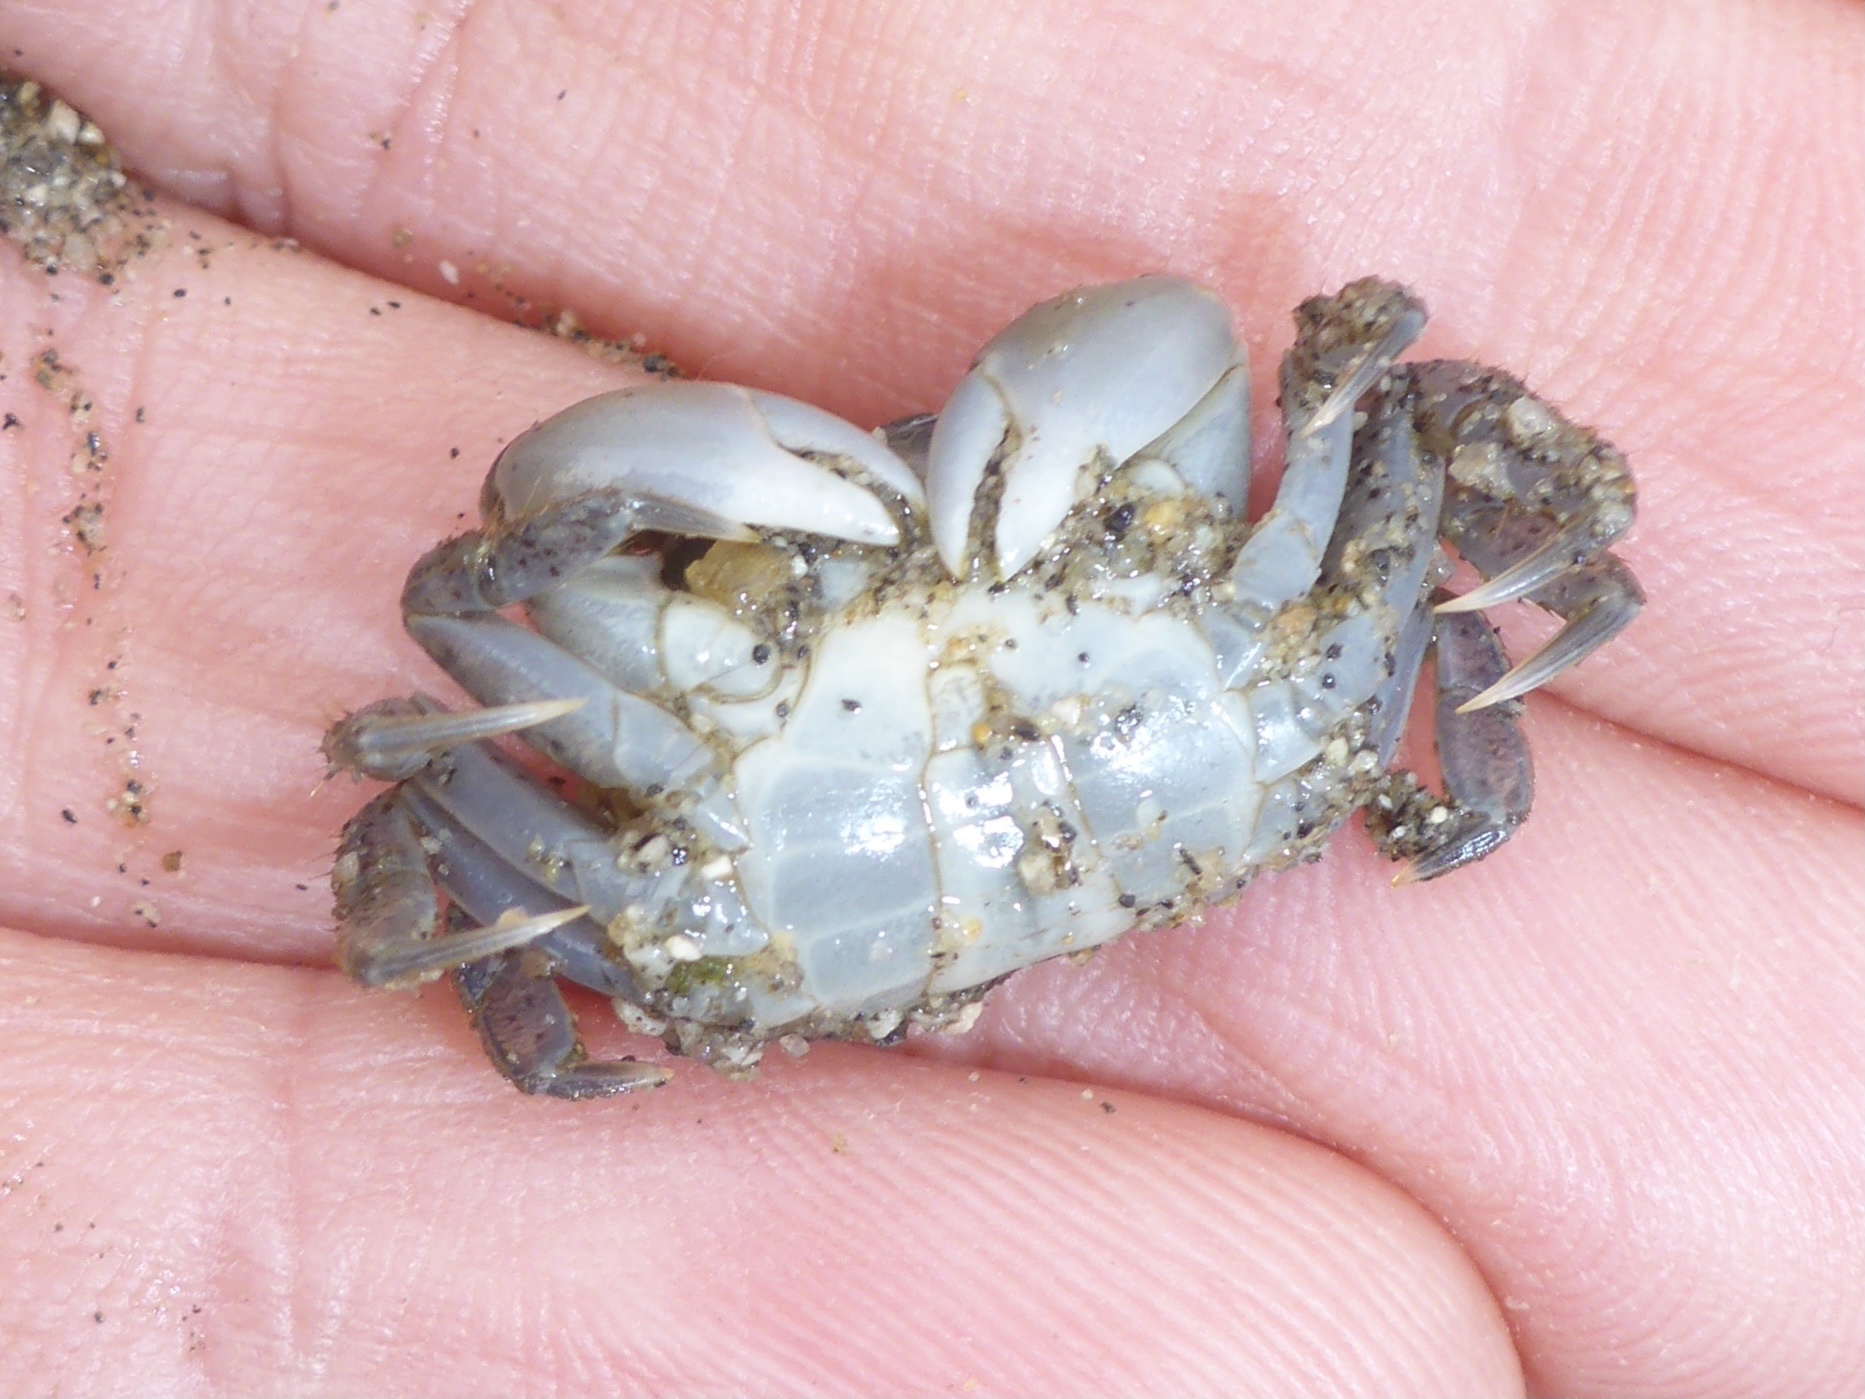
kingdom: Animalia
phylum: Arthropoda
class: Malacostraca
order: Decapoda
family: Varunidae
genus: Hemigrapsus
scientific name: Hemigrapsus oregonensis
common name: Yellow shore crab
